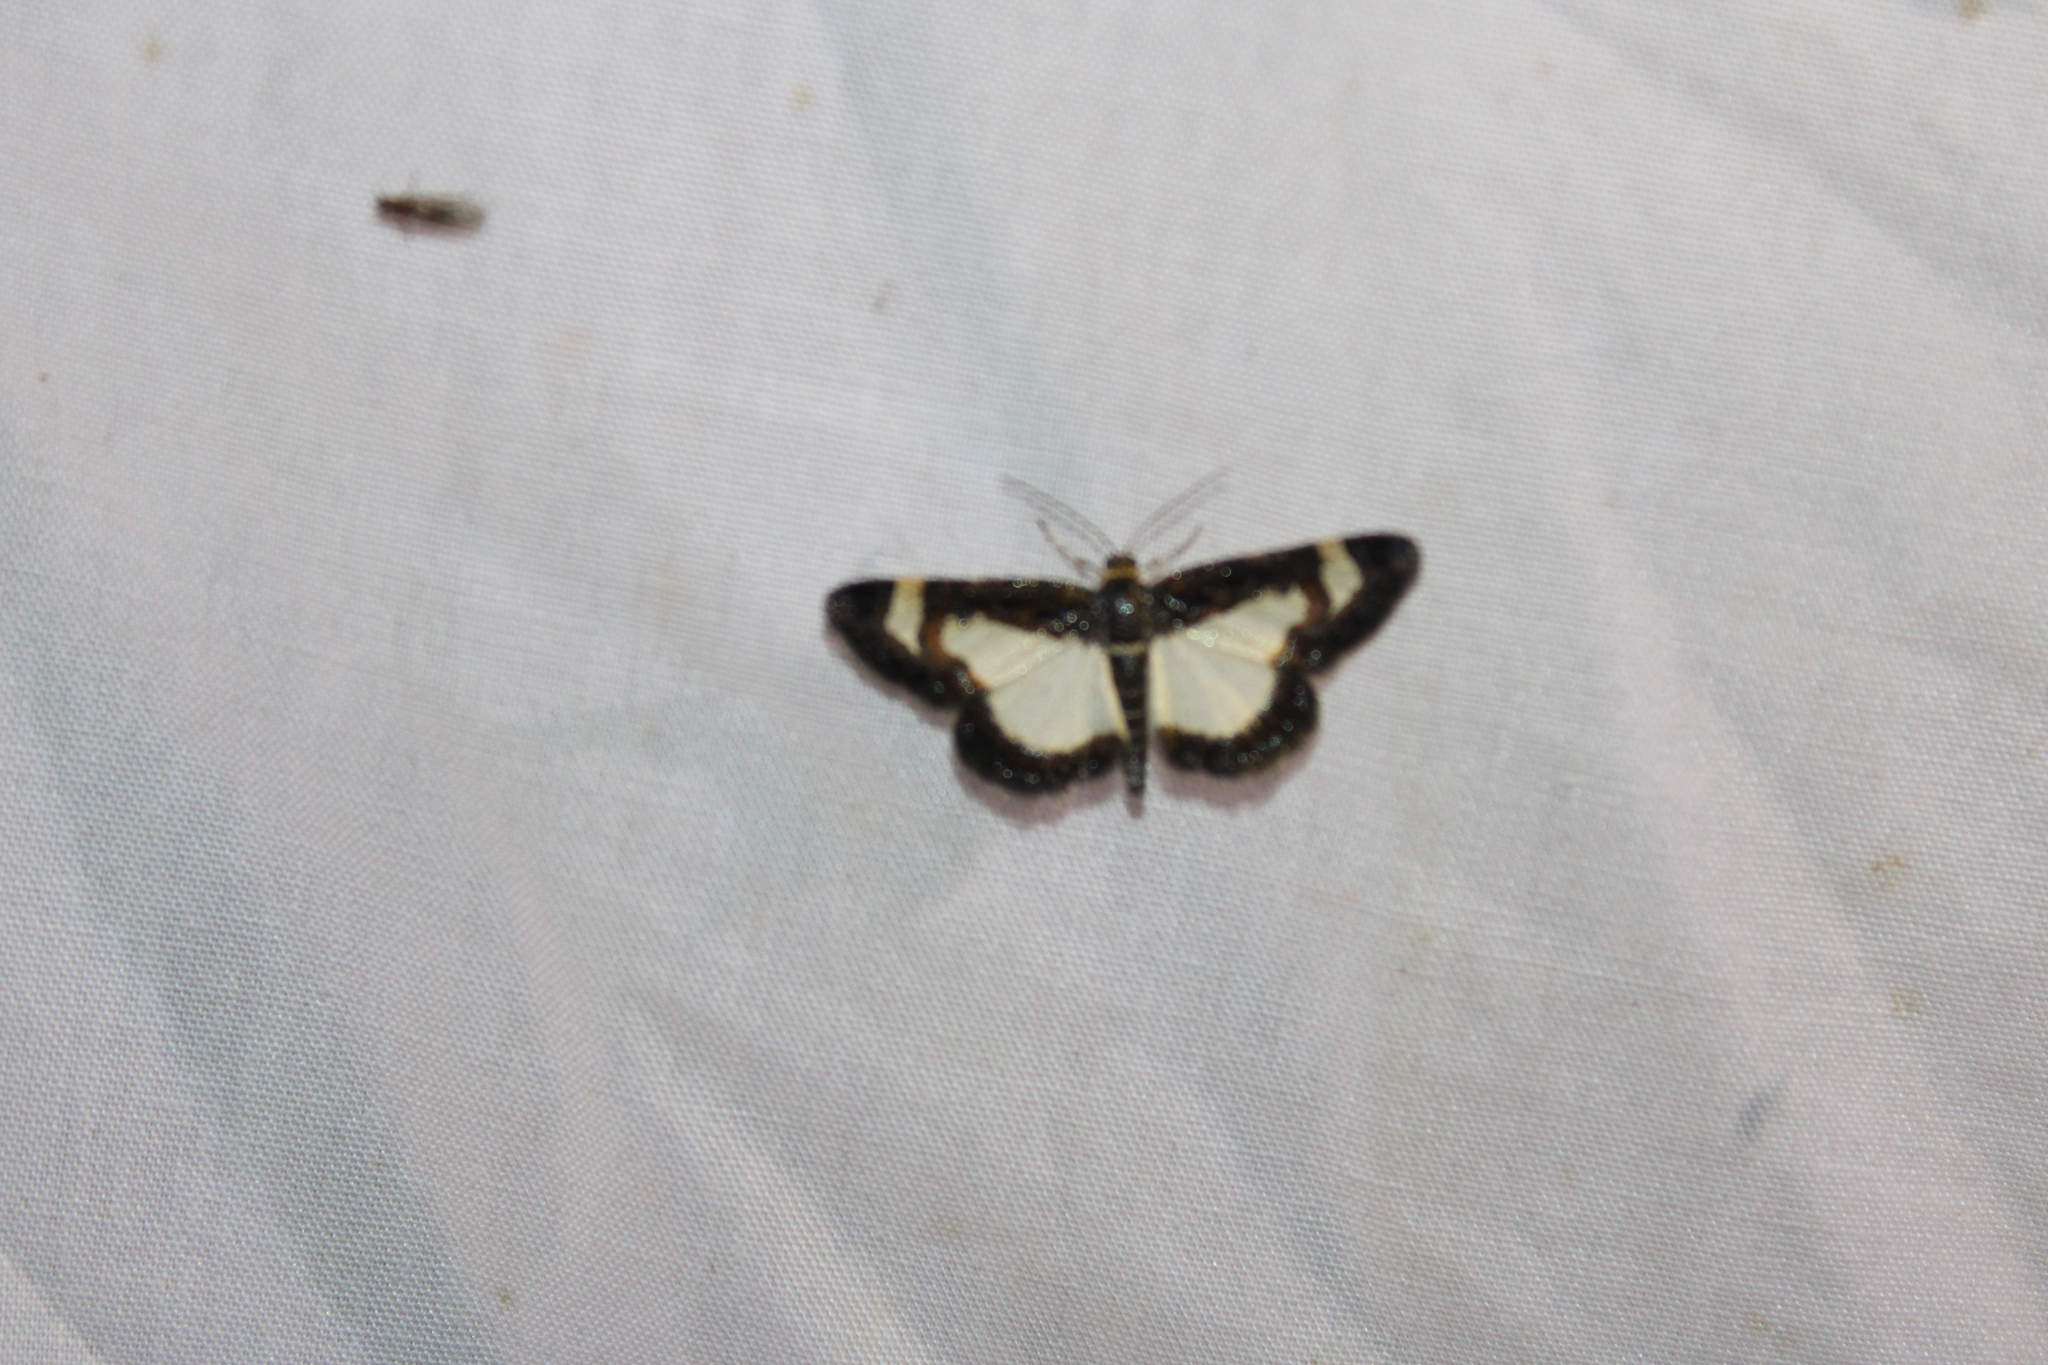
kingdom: Animalia
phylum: Arthropoda
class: Insecta
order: Lepidoptera
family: Geometridae
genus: Heliomata
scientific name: Heliomata cycladata
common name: Common spring moth
